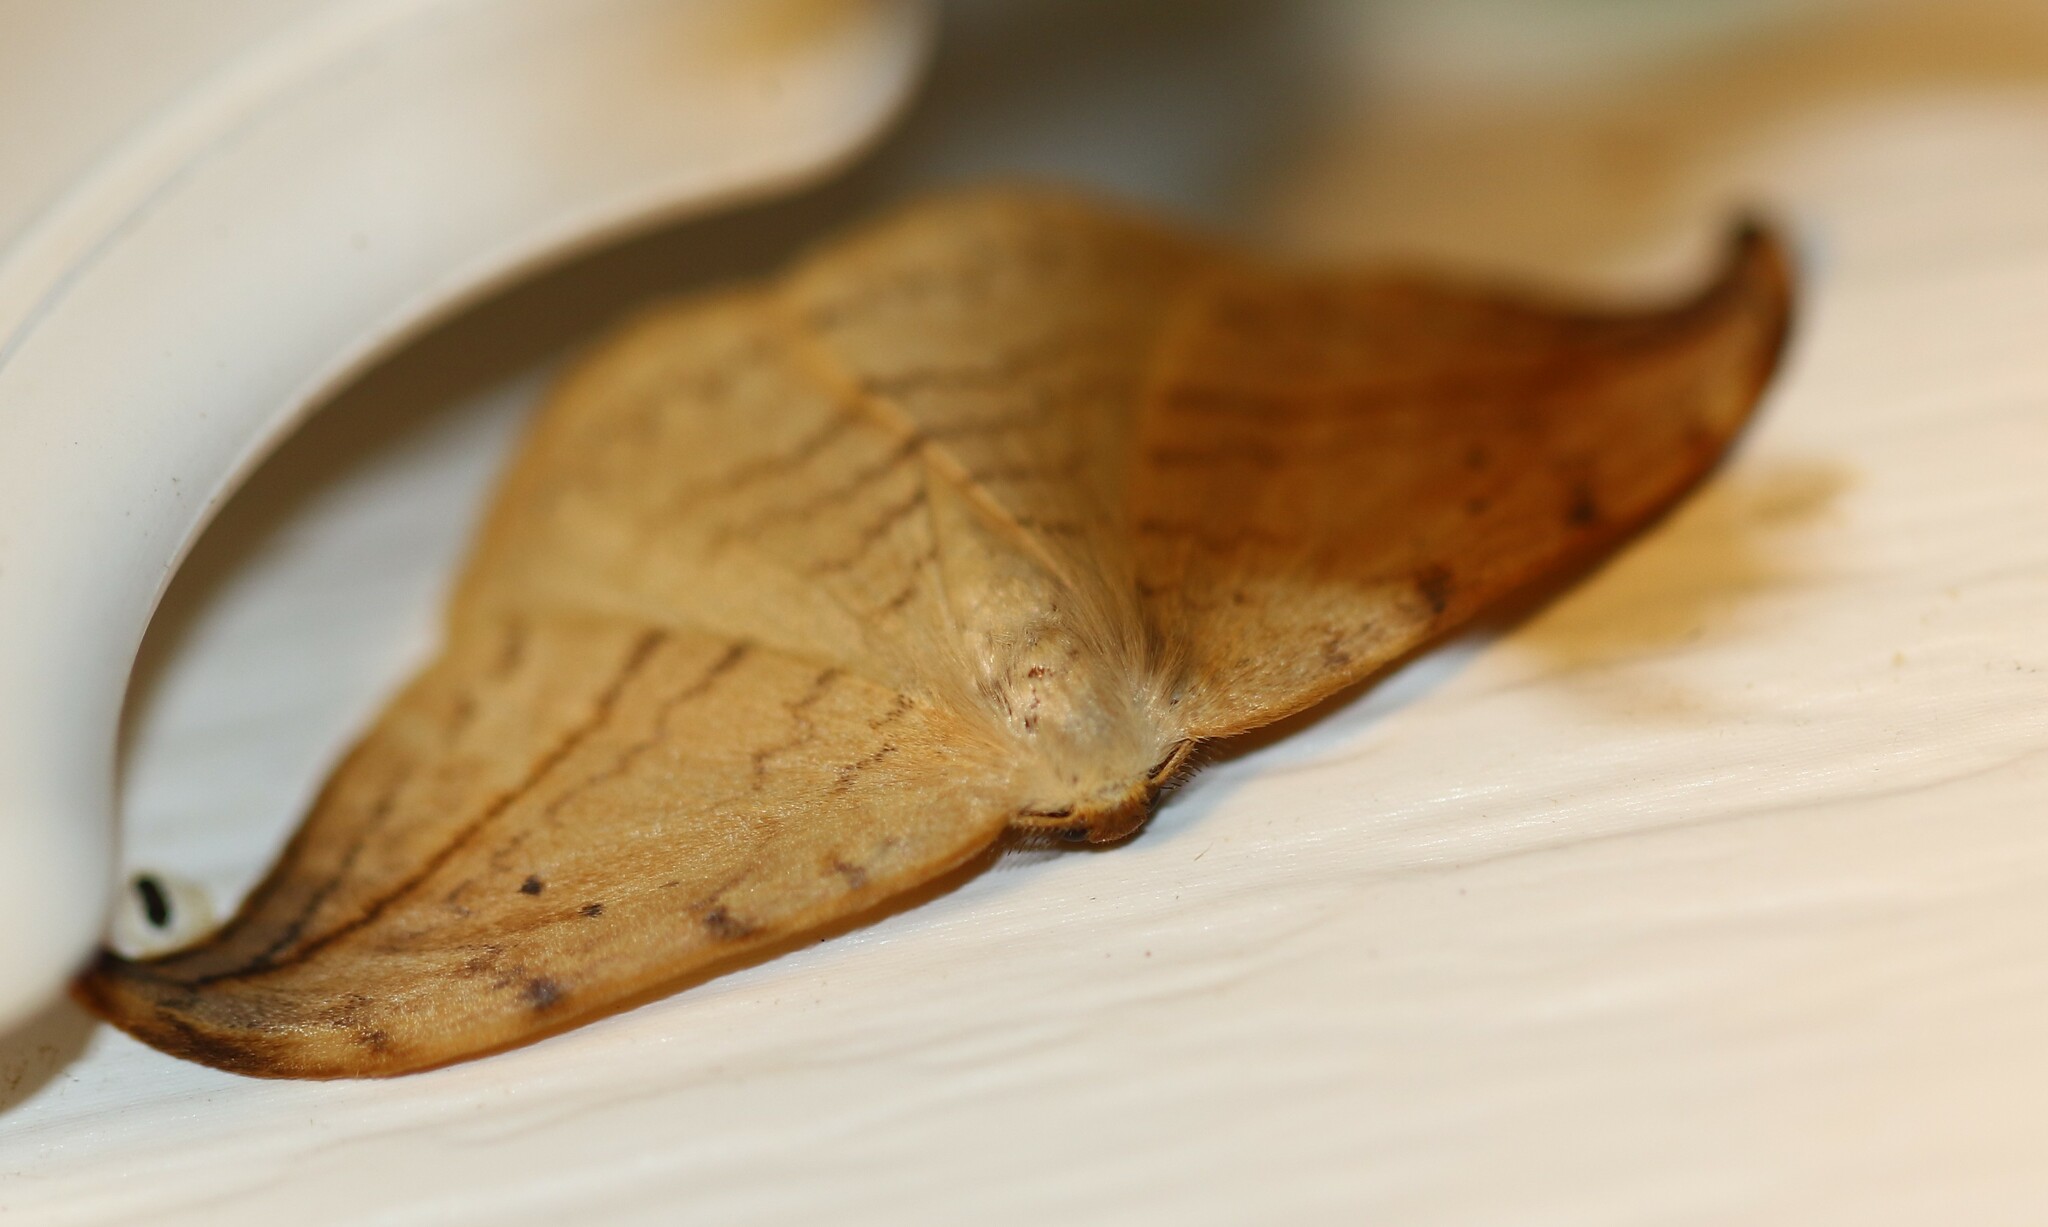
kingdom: Animalia
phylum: Arthropoda
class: Insecta
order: Lepidoptera
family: Drepanidae
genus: Drepana
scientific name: Drepana arcuata
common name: Arched hooktip moth
